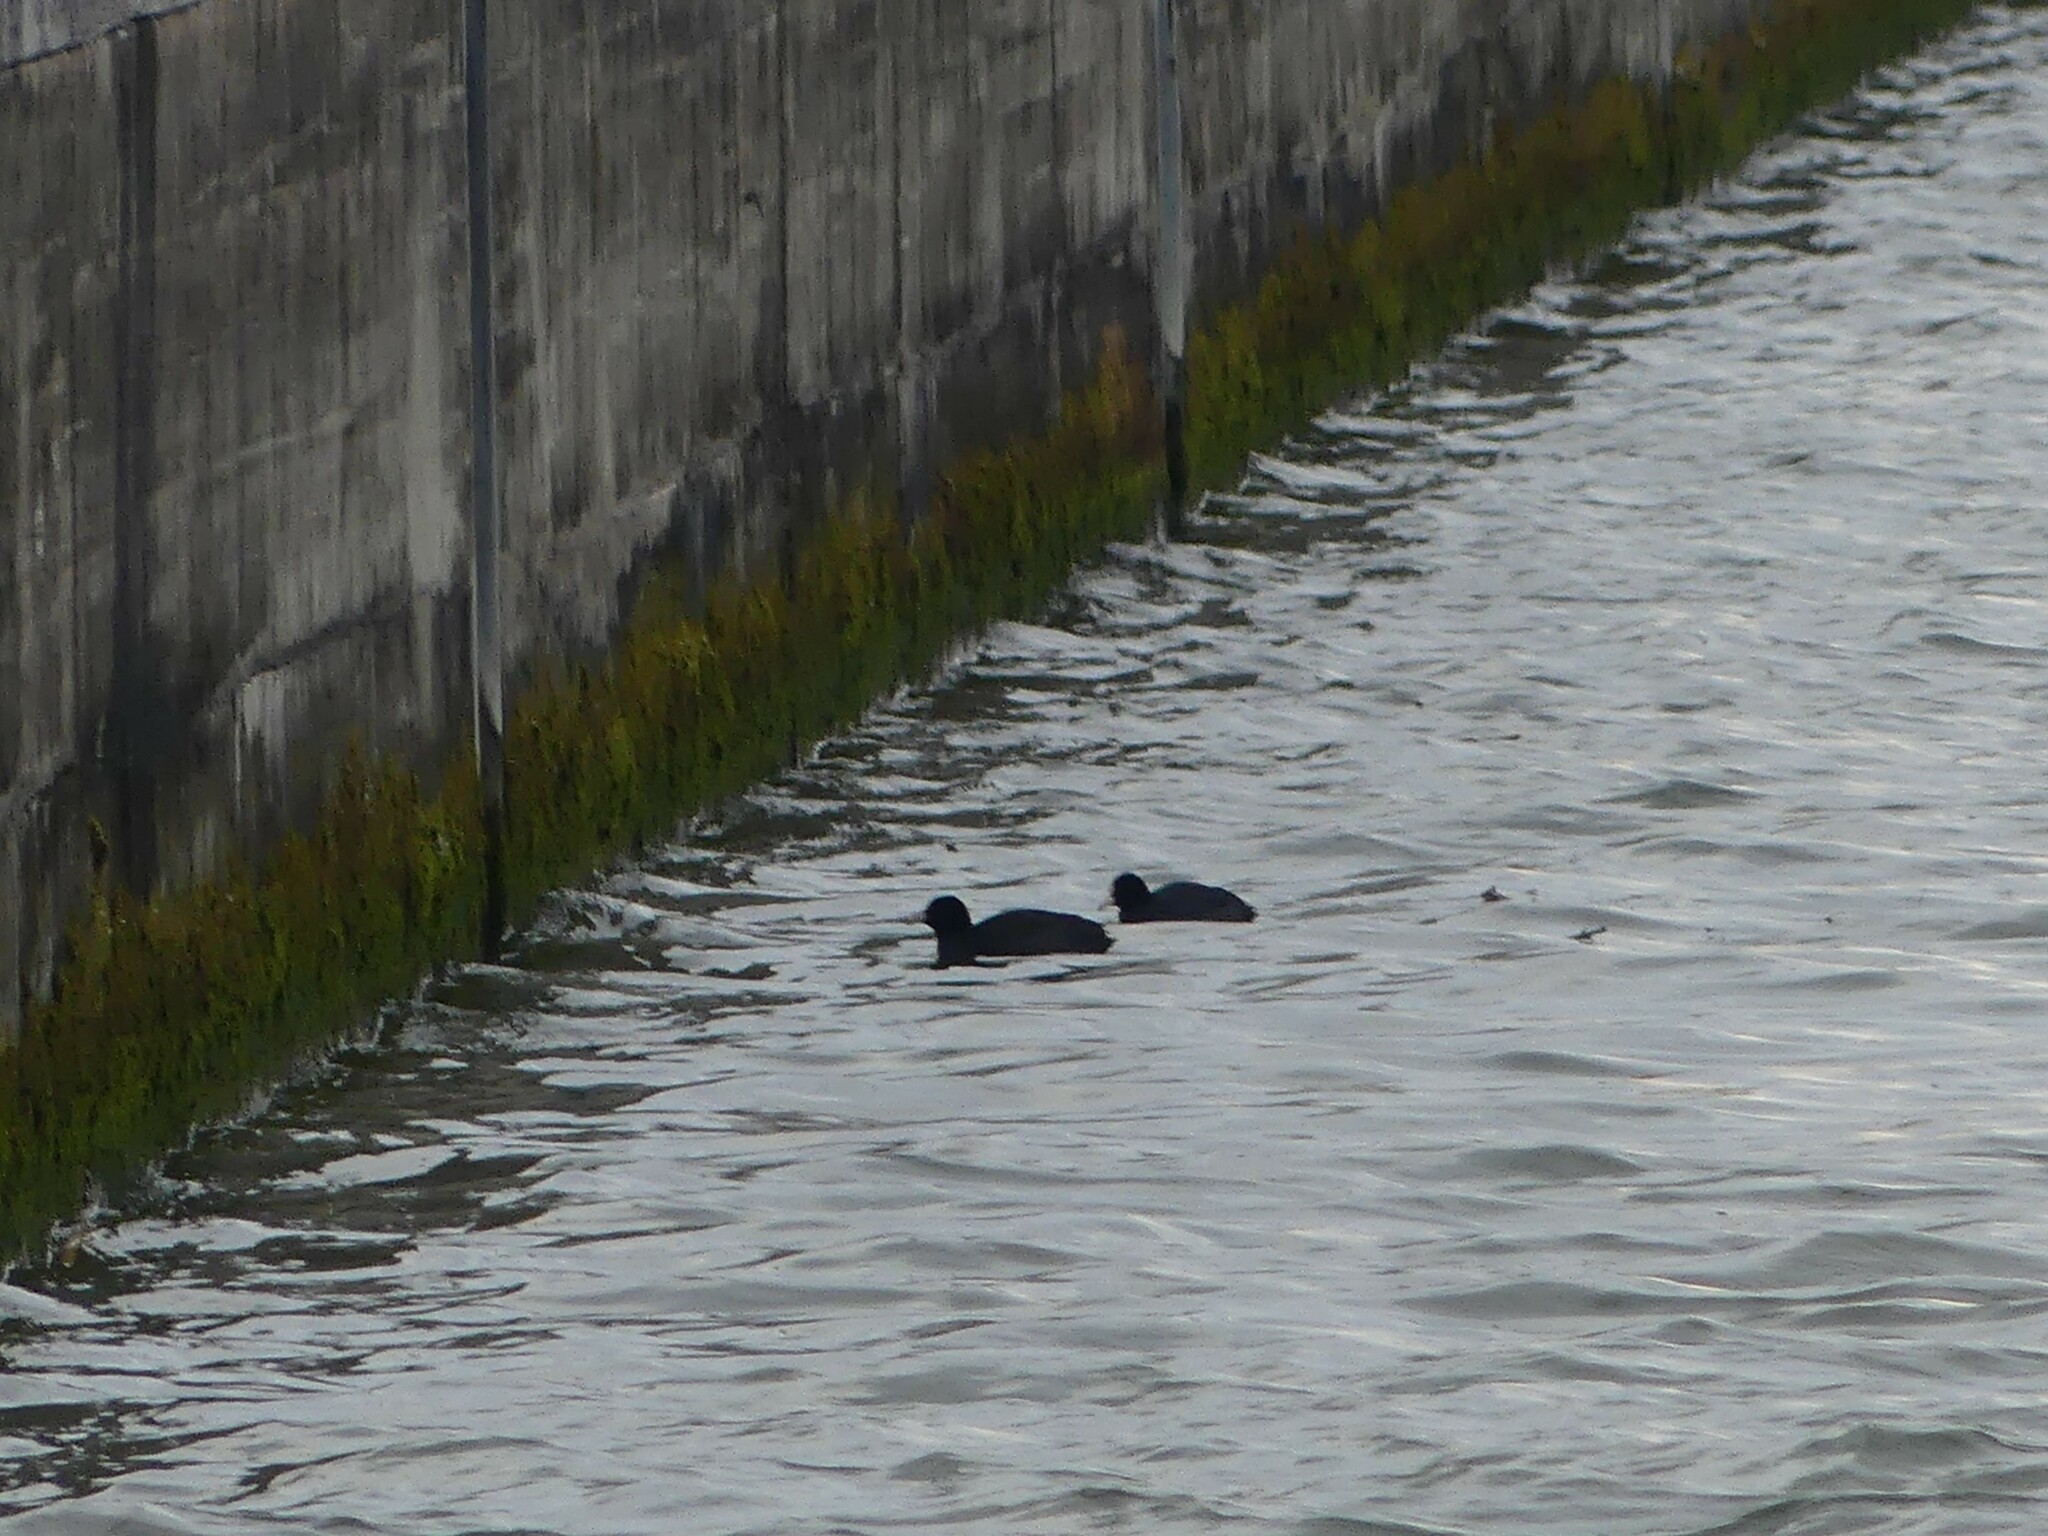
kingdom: Animalia
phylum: Chordata
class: Aves
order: Gruiformes
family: Rallidae
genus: Fulica
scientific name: Fulica atra
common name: Eurasian coot
